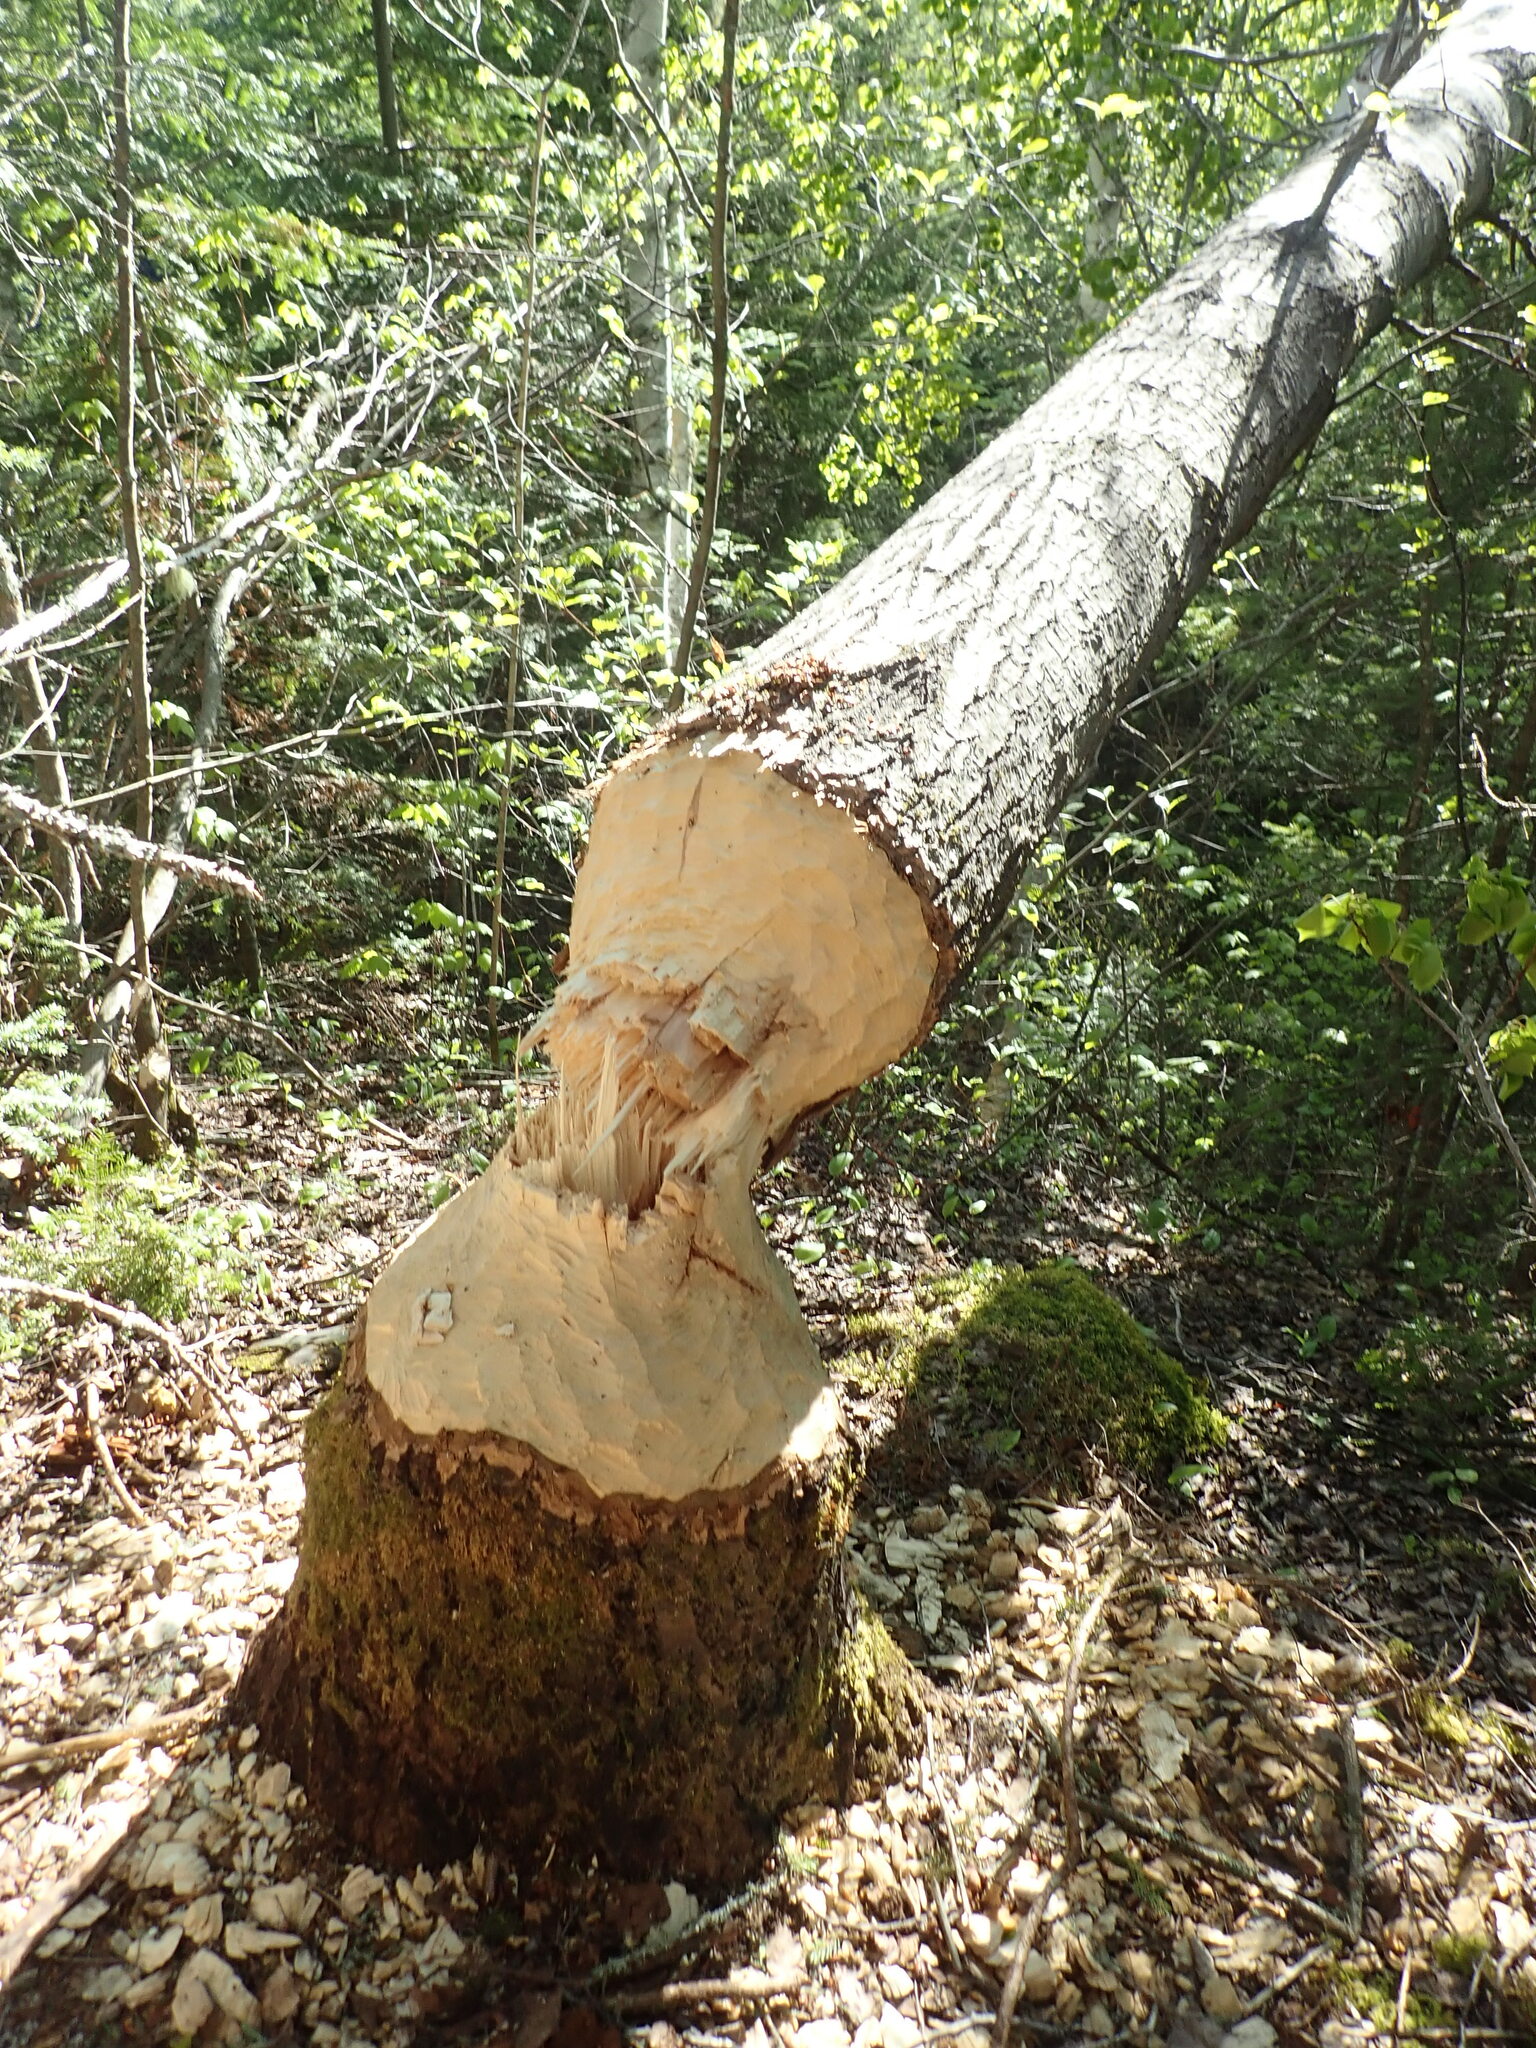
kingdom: Animalia
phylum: Chordata
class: Mammalia
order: Rodentia
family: Castoridae
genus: Castor
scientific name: Castor canadensis
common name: American beaver
